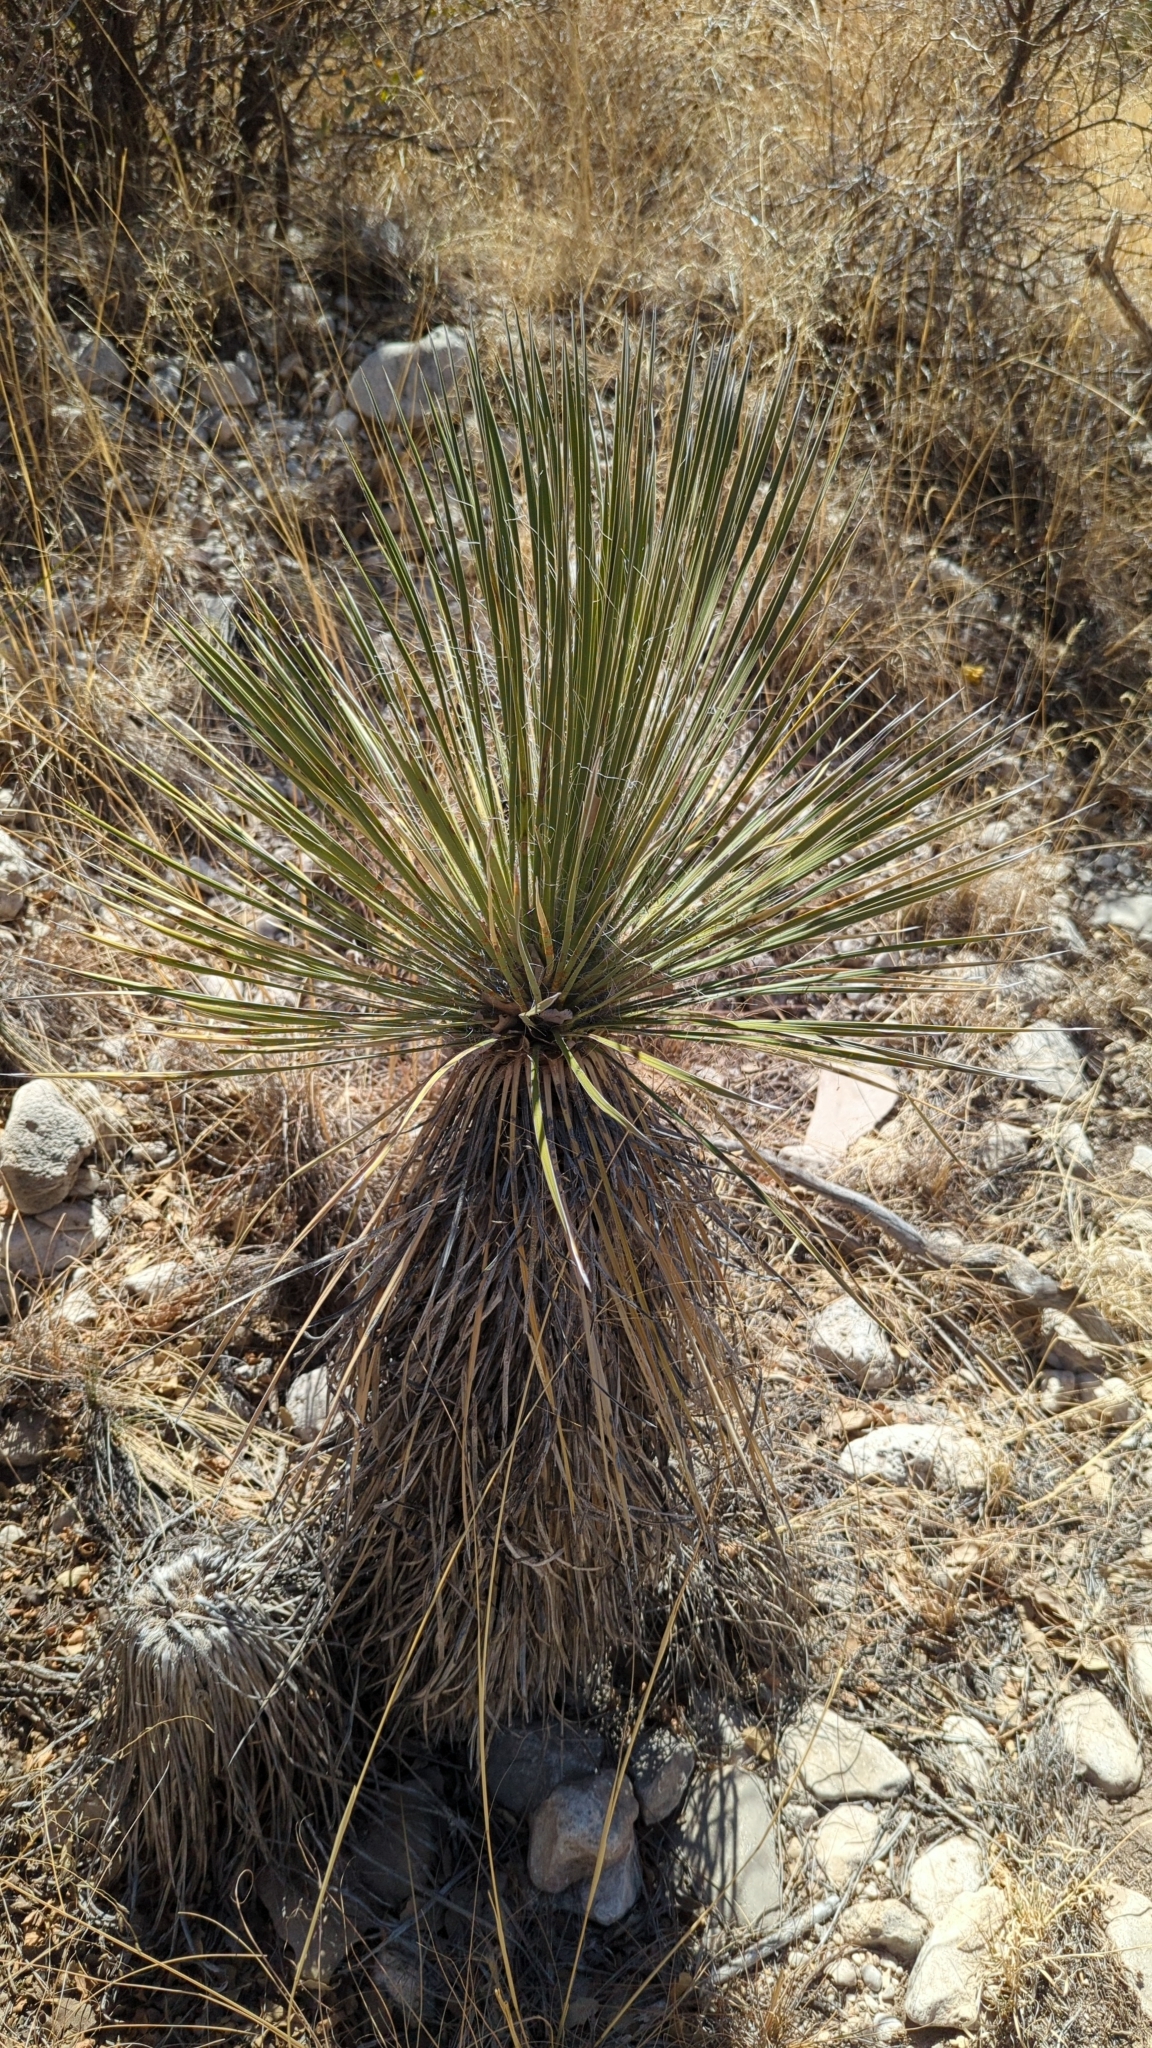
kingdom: Plantae
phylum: Tracheophyta
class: Liliopsida
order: Asparagales
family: Asparagaceae
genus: Yucca
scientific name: Yucca elata
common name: Palmella
